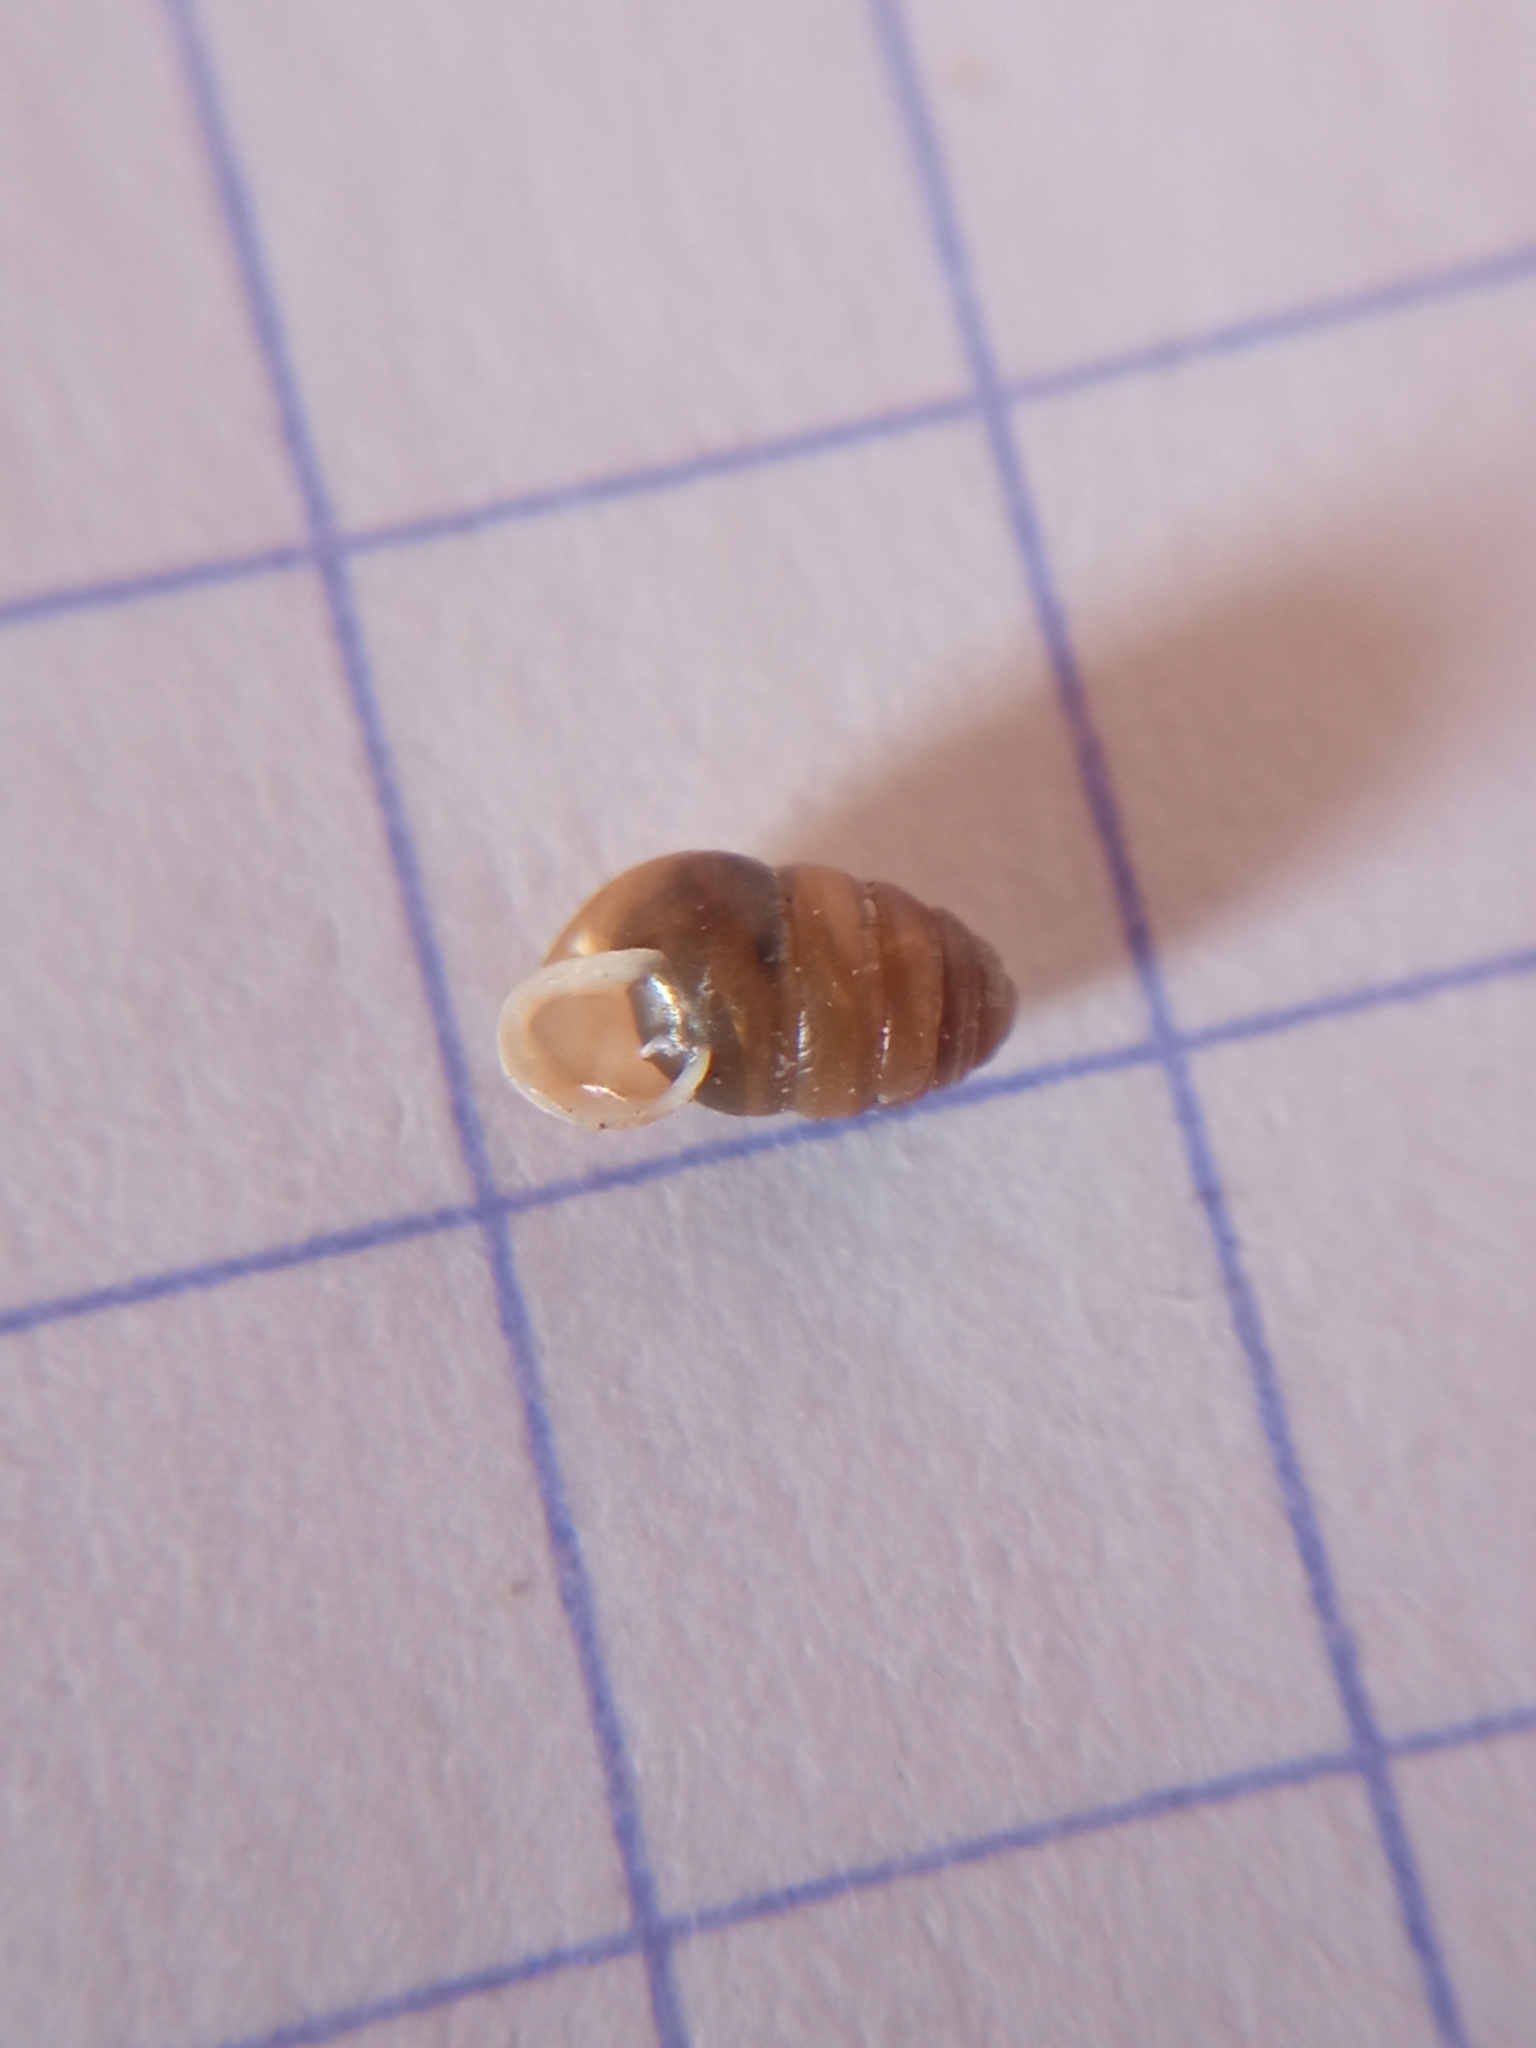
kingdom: Animalia
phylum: Mollusca
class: Gastropoda
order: Stylommatophora
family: Lauriidae
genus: Lauria
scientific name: Lauria cylindracea
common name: Common chrysalis snail
